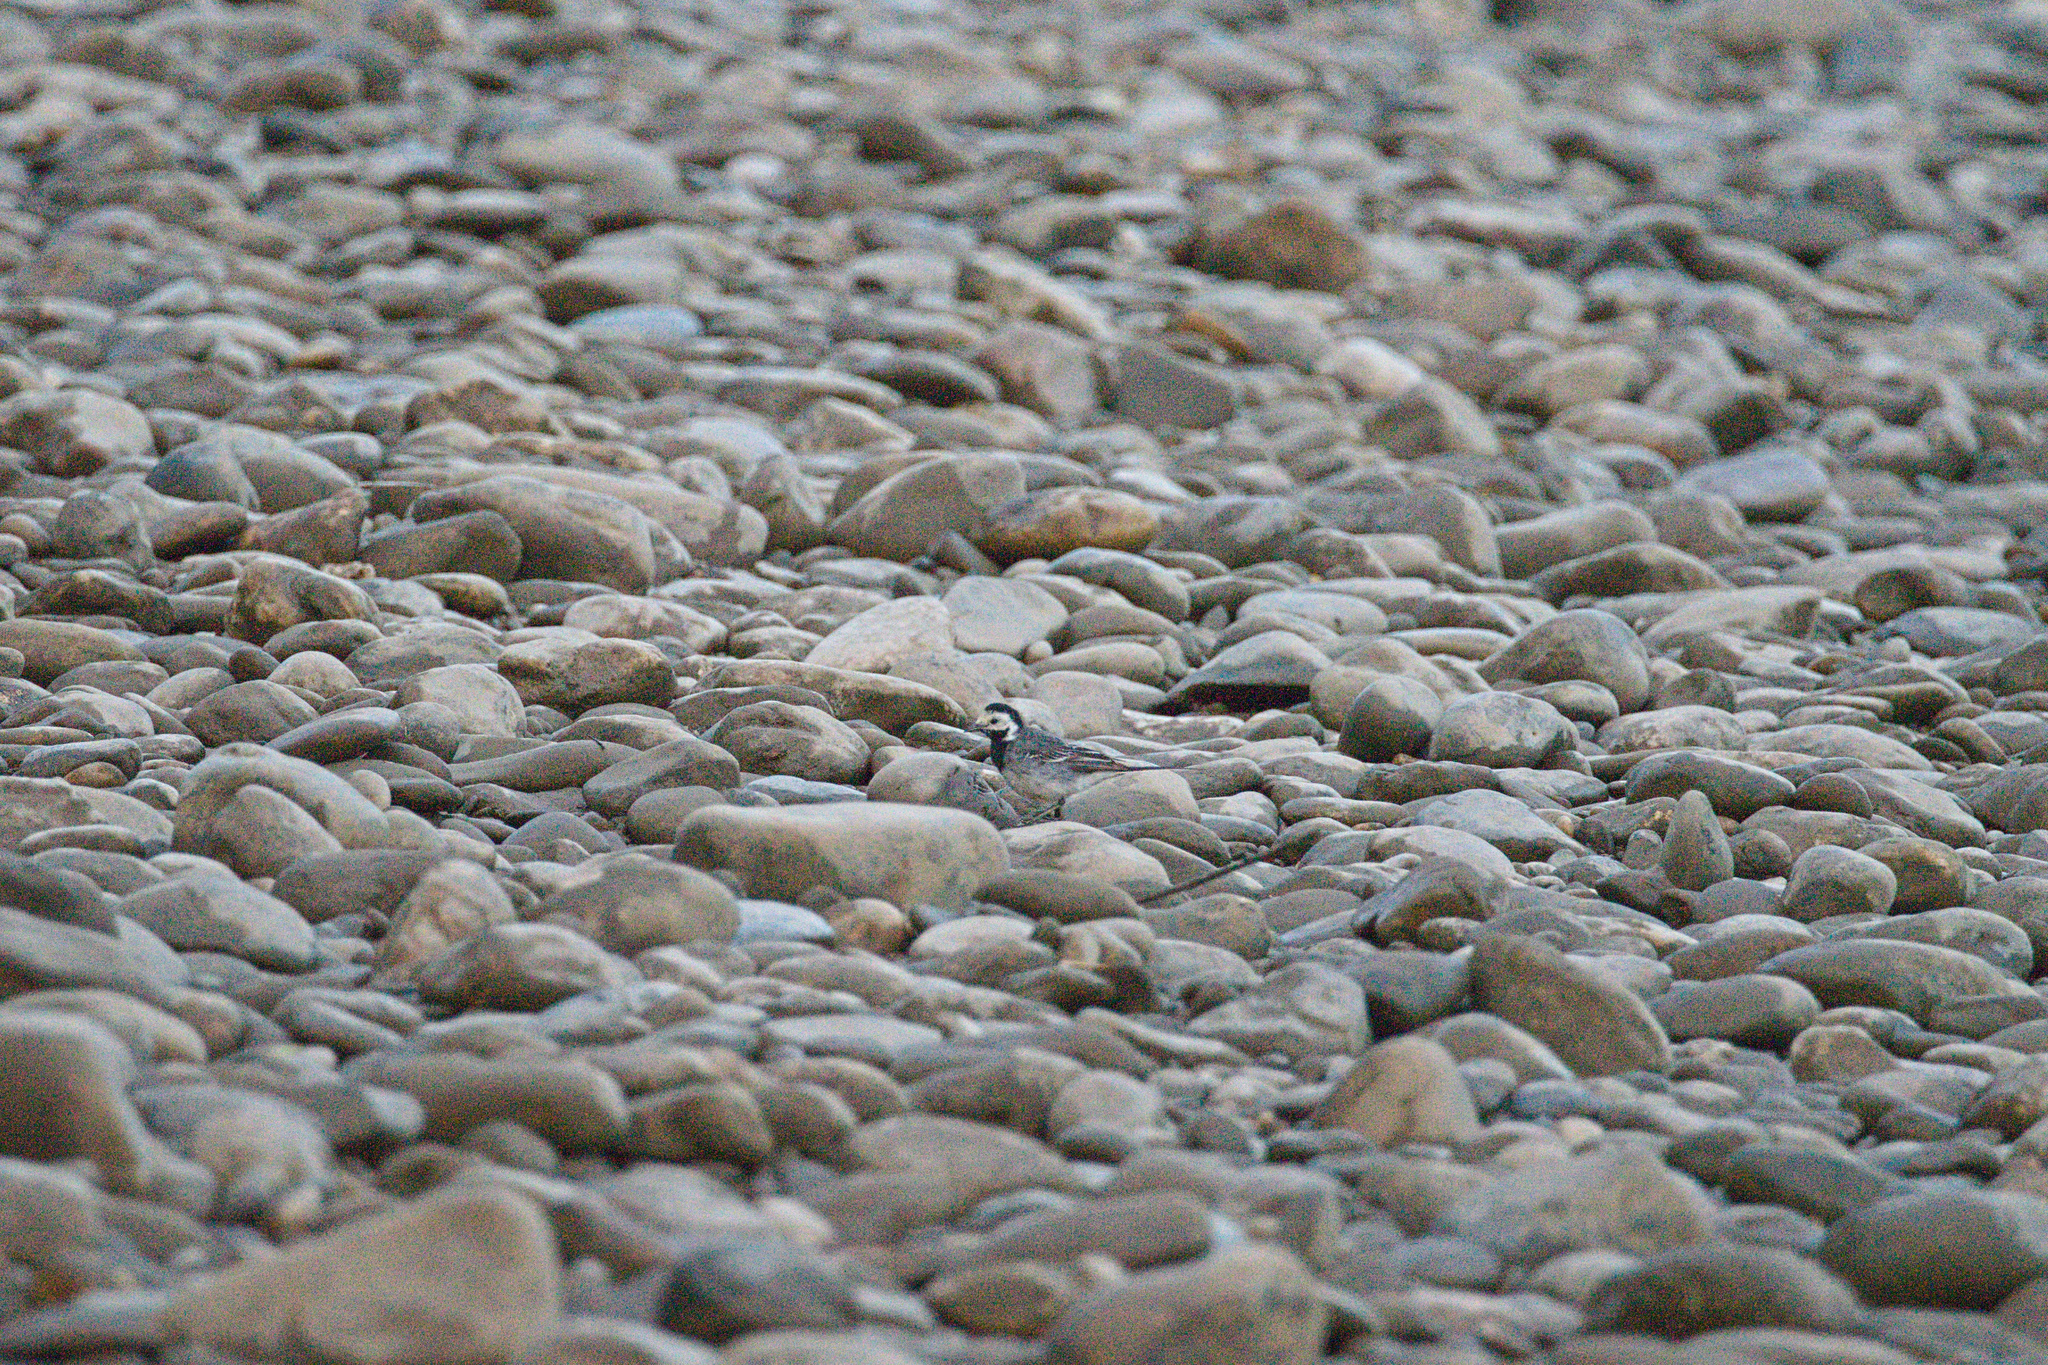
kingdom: Animalia
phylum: Chordata
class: Aves
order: Passeriformes
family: Motacillidae
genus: Motacilla
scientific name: Motacilla alba
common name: White wagtail
